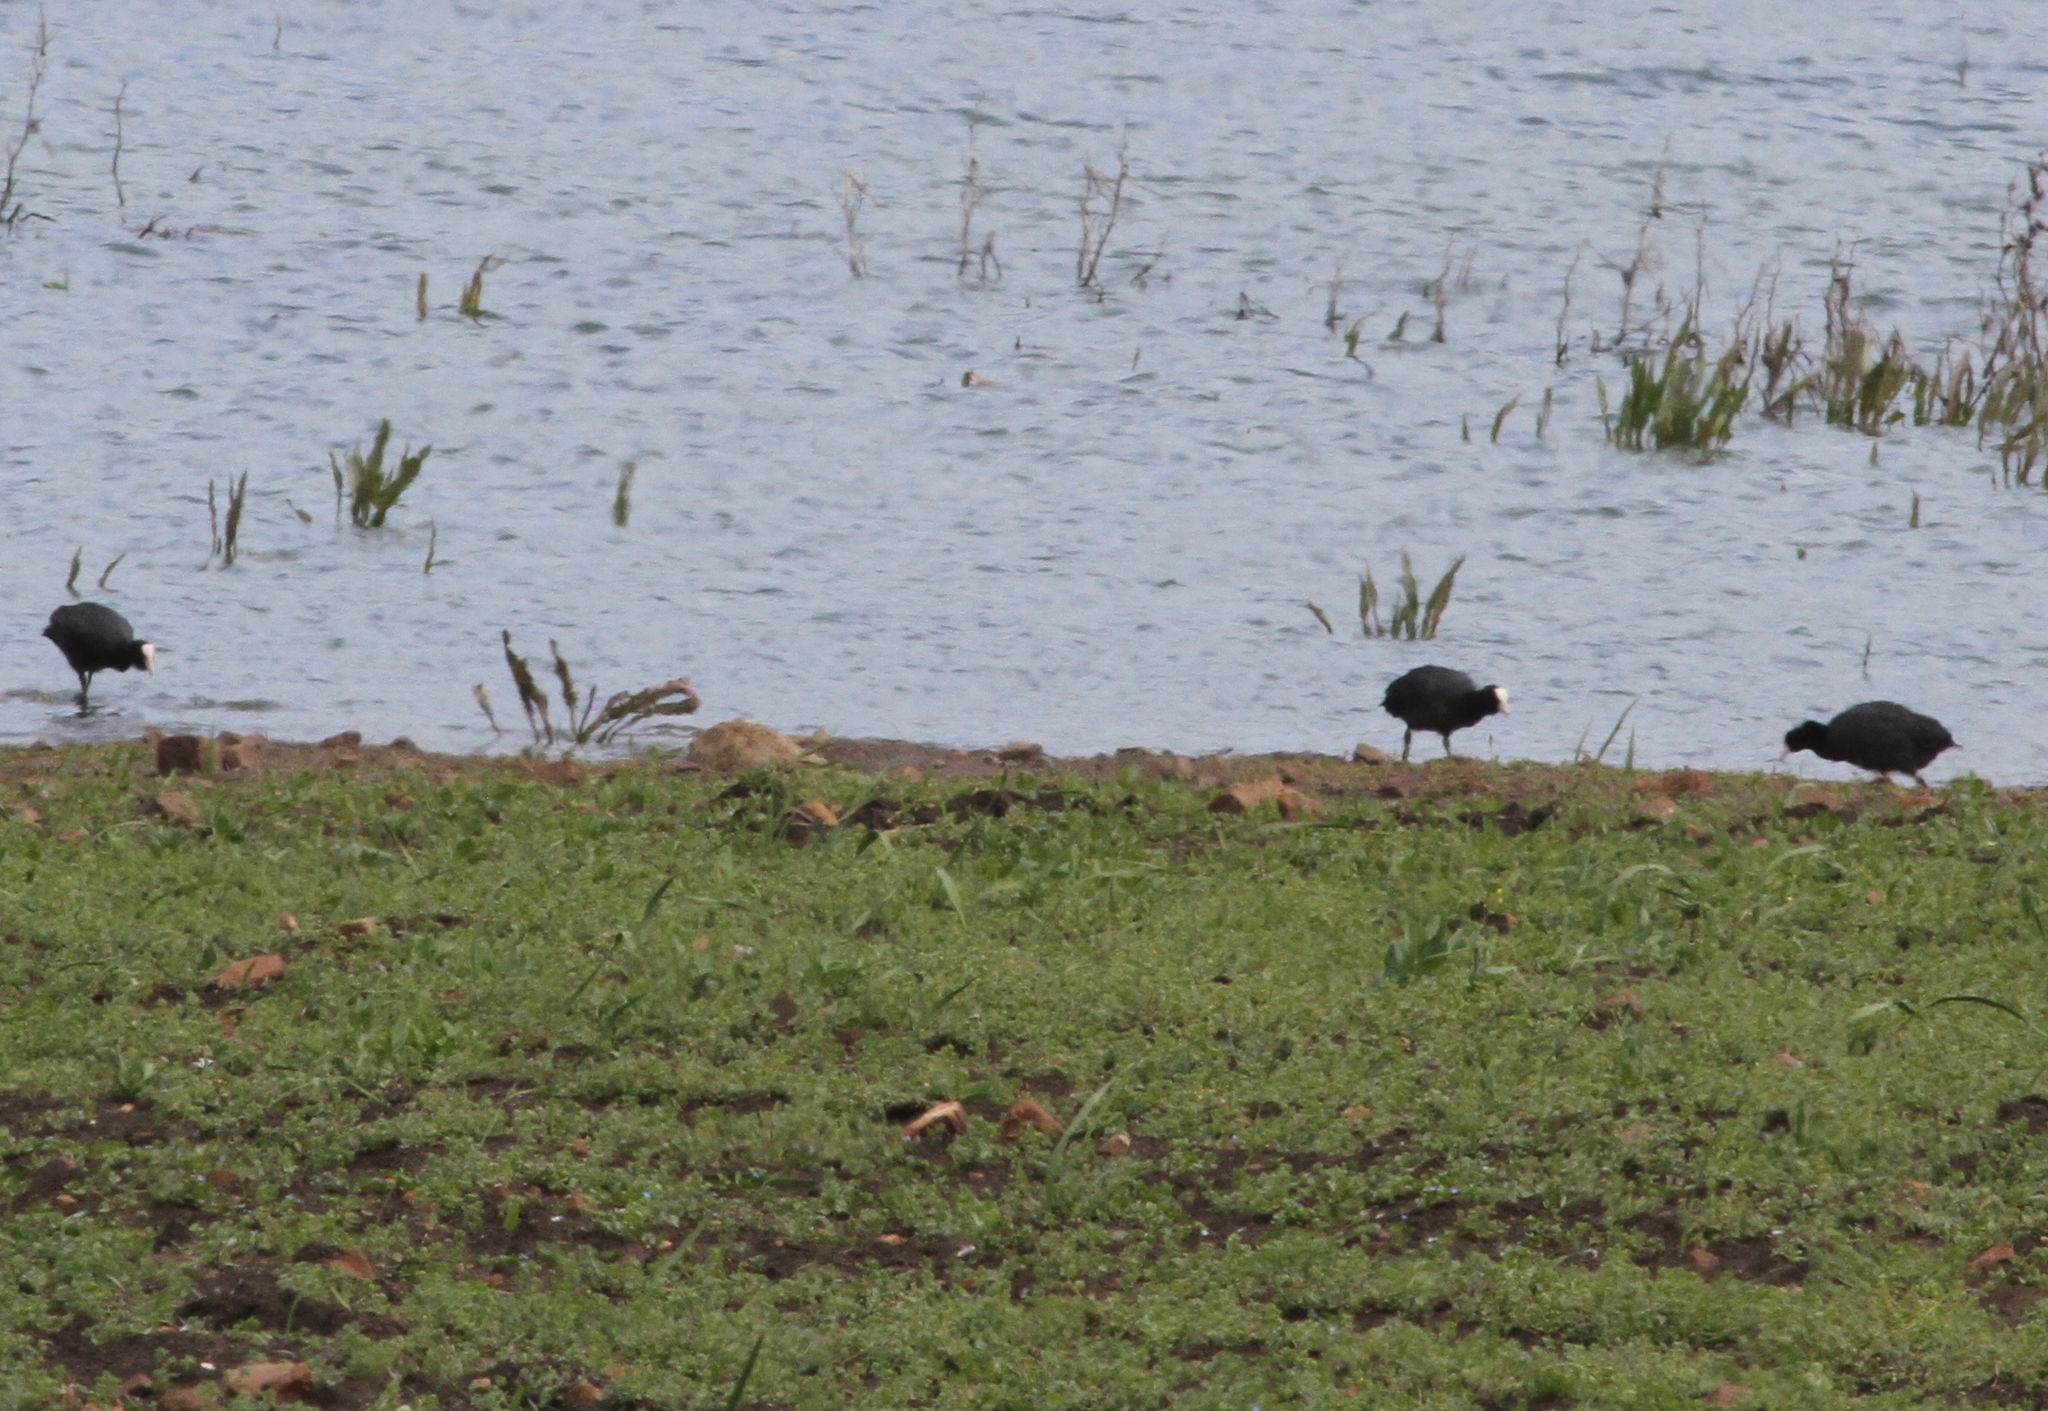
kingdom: Animalia
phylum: Chordata
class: Aves
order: Gruiformes
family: Rallidae
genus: Fulica
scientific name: Fulica atra
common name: Eurasian coot
